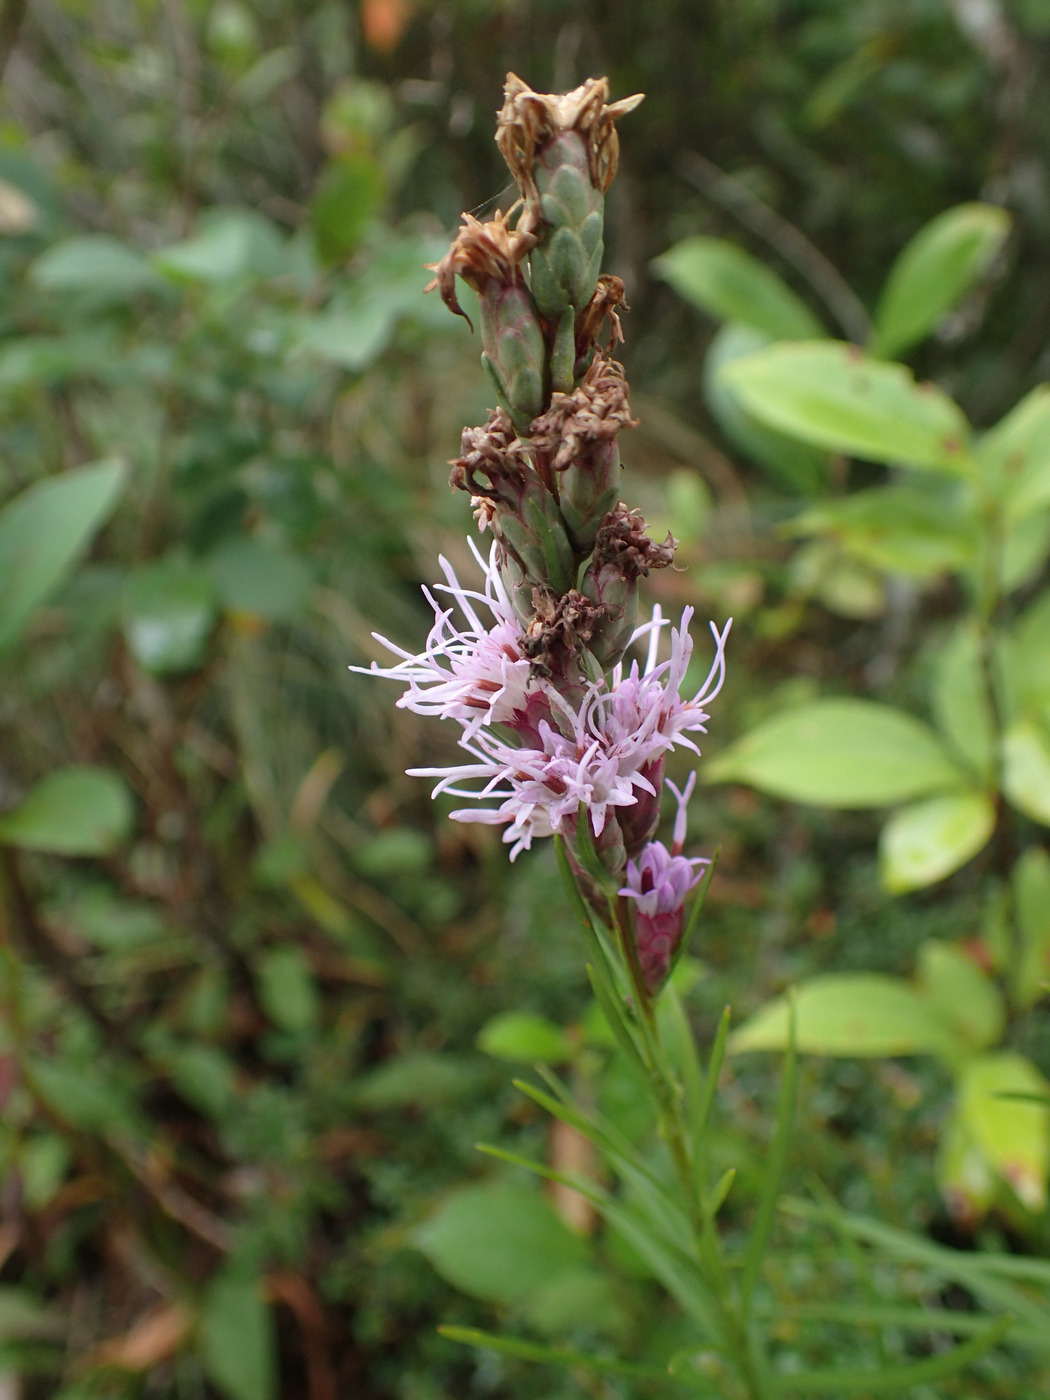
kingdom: Plantae
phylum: Tracheophyta
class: Magnoliopsida
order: Asterales
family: Asteraceae
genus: Liatris
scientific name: Liatris helleri
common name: Heller's blazingstar
